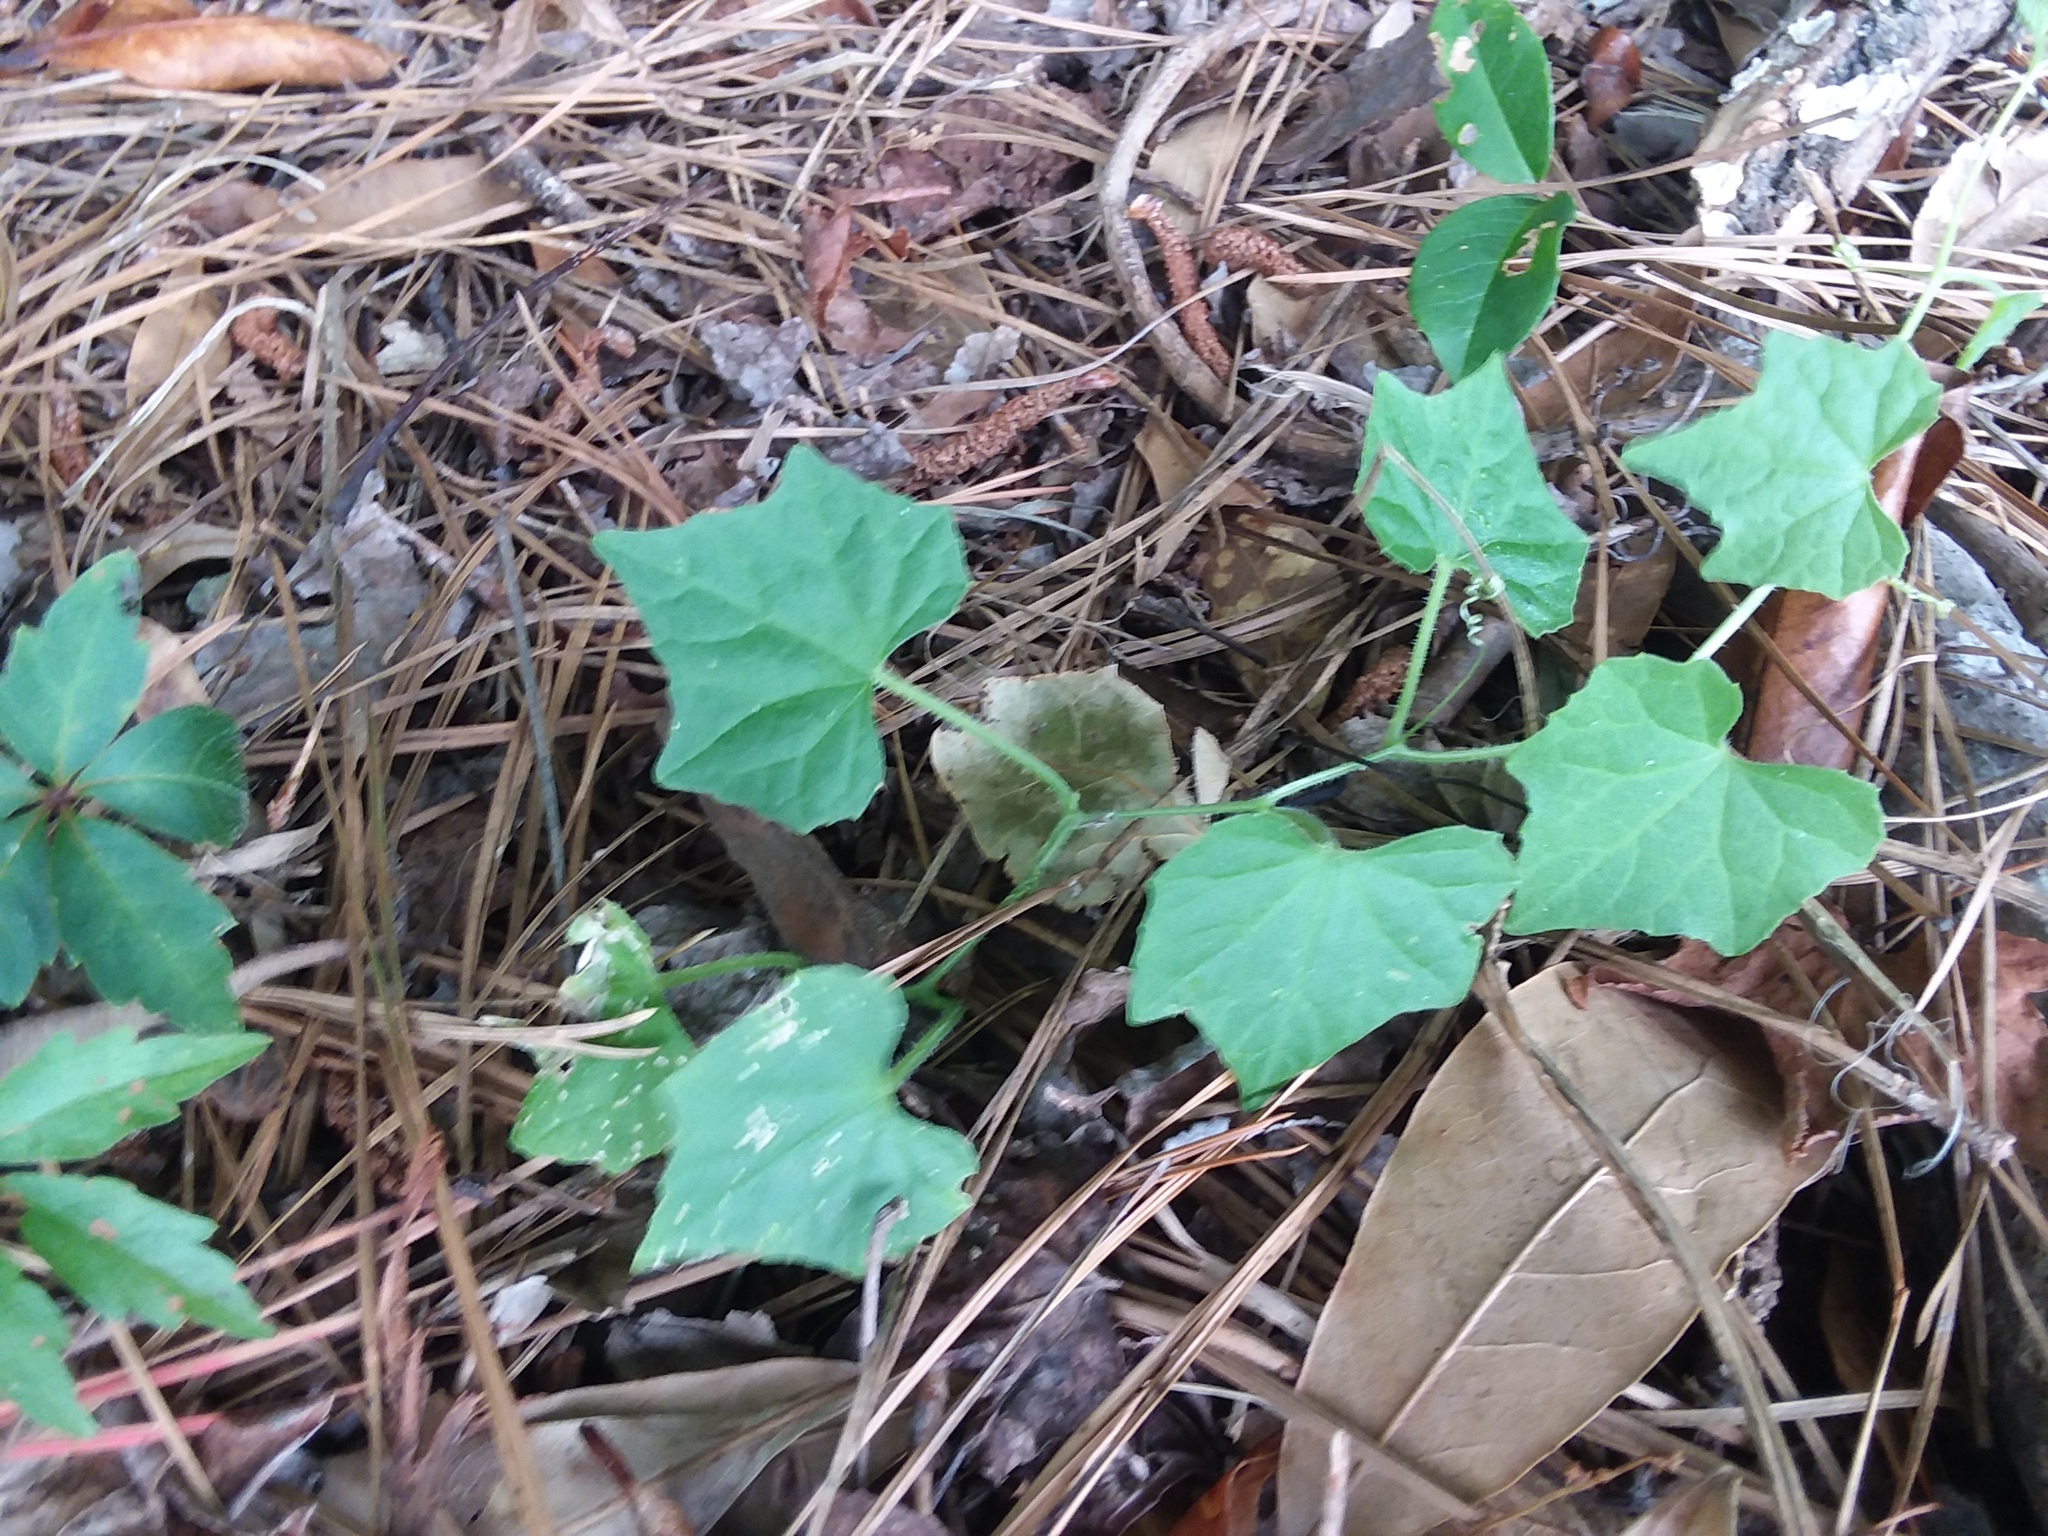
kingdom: Plantae
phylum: Tracheophyta
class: Magnoliopsida
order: Cucurbitales
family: Cucurbitaceae
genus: Melothria
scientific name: Melothria pendula
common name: Creeping-cucumber
